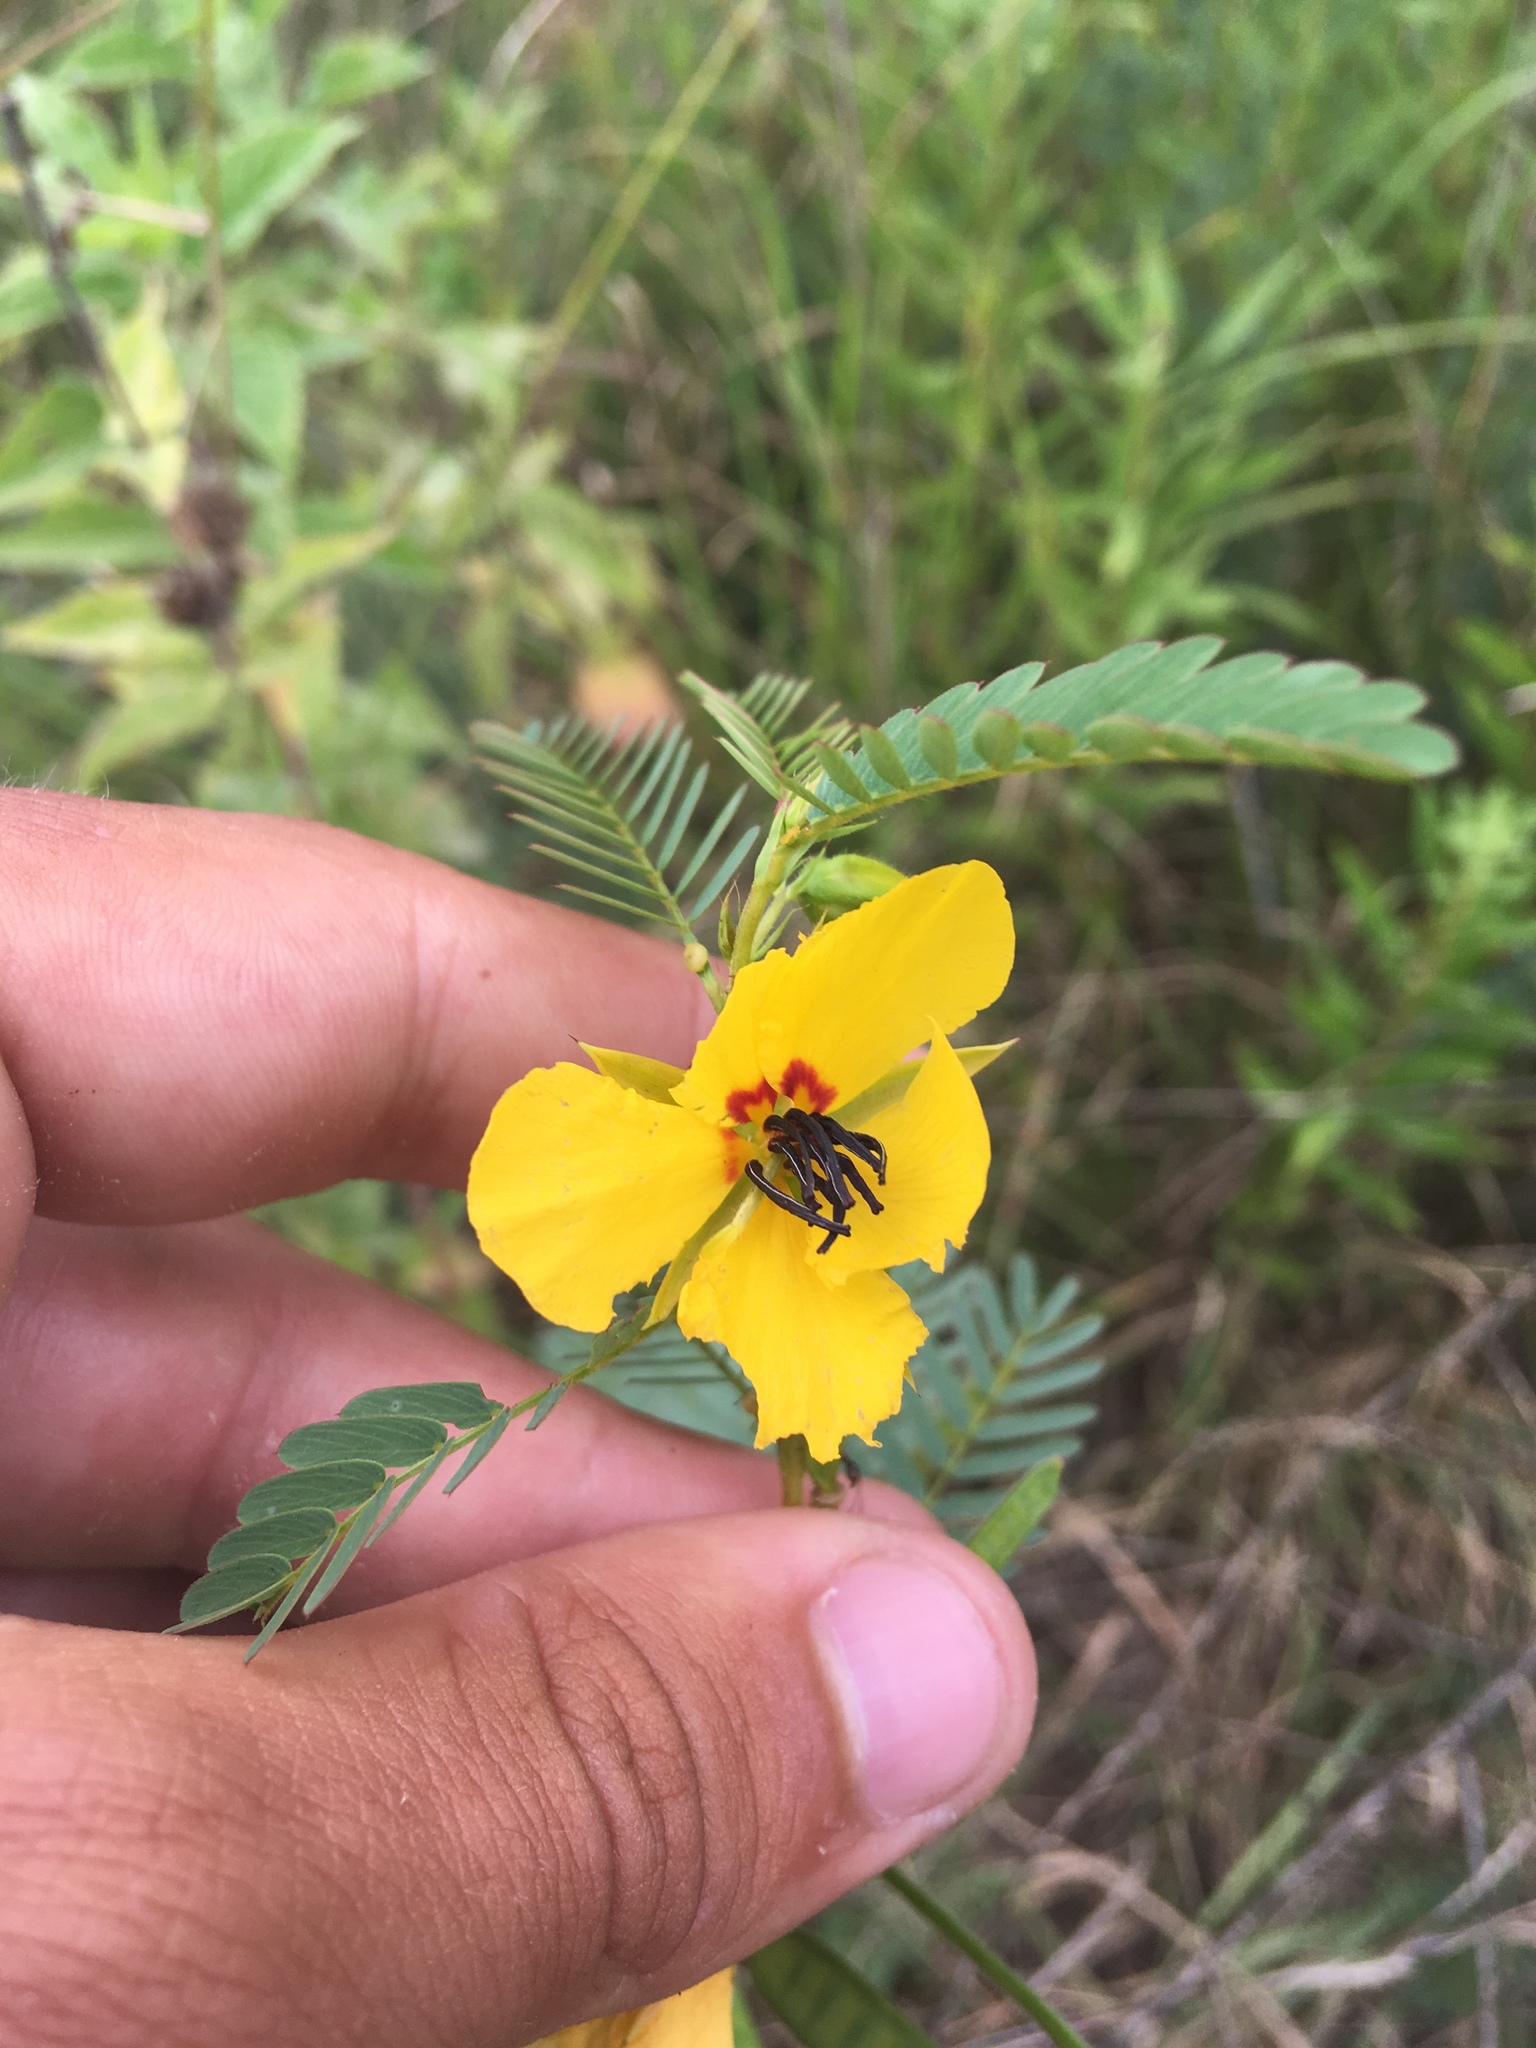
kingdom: Plantae
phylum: Tracheophyta
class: Magnoliopsida
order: Fabales
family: Fabaceae
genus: Chamaecrista
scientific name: Chamaecrista fasciculata
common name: Golden cassia
